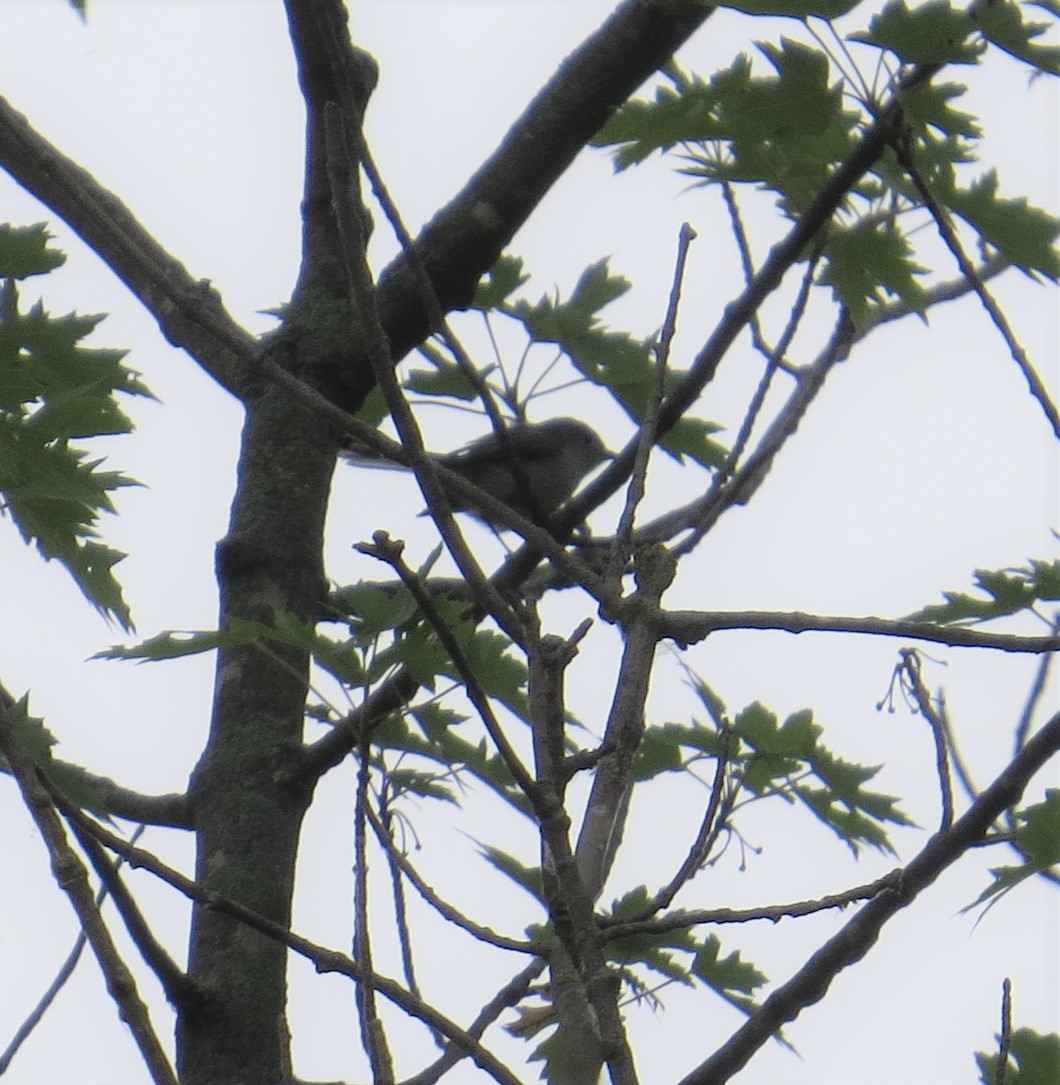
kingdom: Animalia
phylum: Chordata
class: Aves
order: Passeriformes
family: Polioptilidae
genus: Polioptila
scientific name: Polioptila caerulea
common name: Blue-gray gnatcatcher
